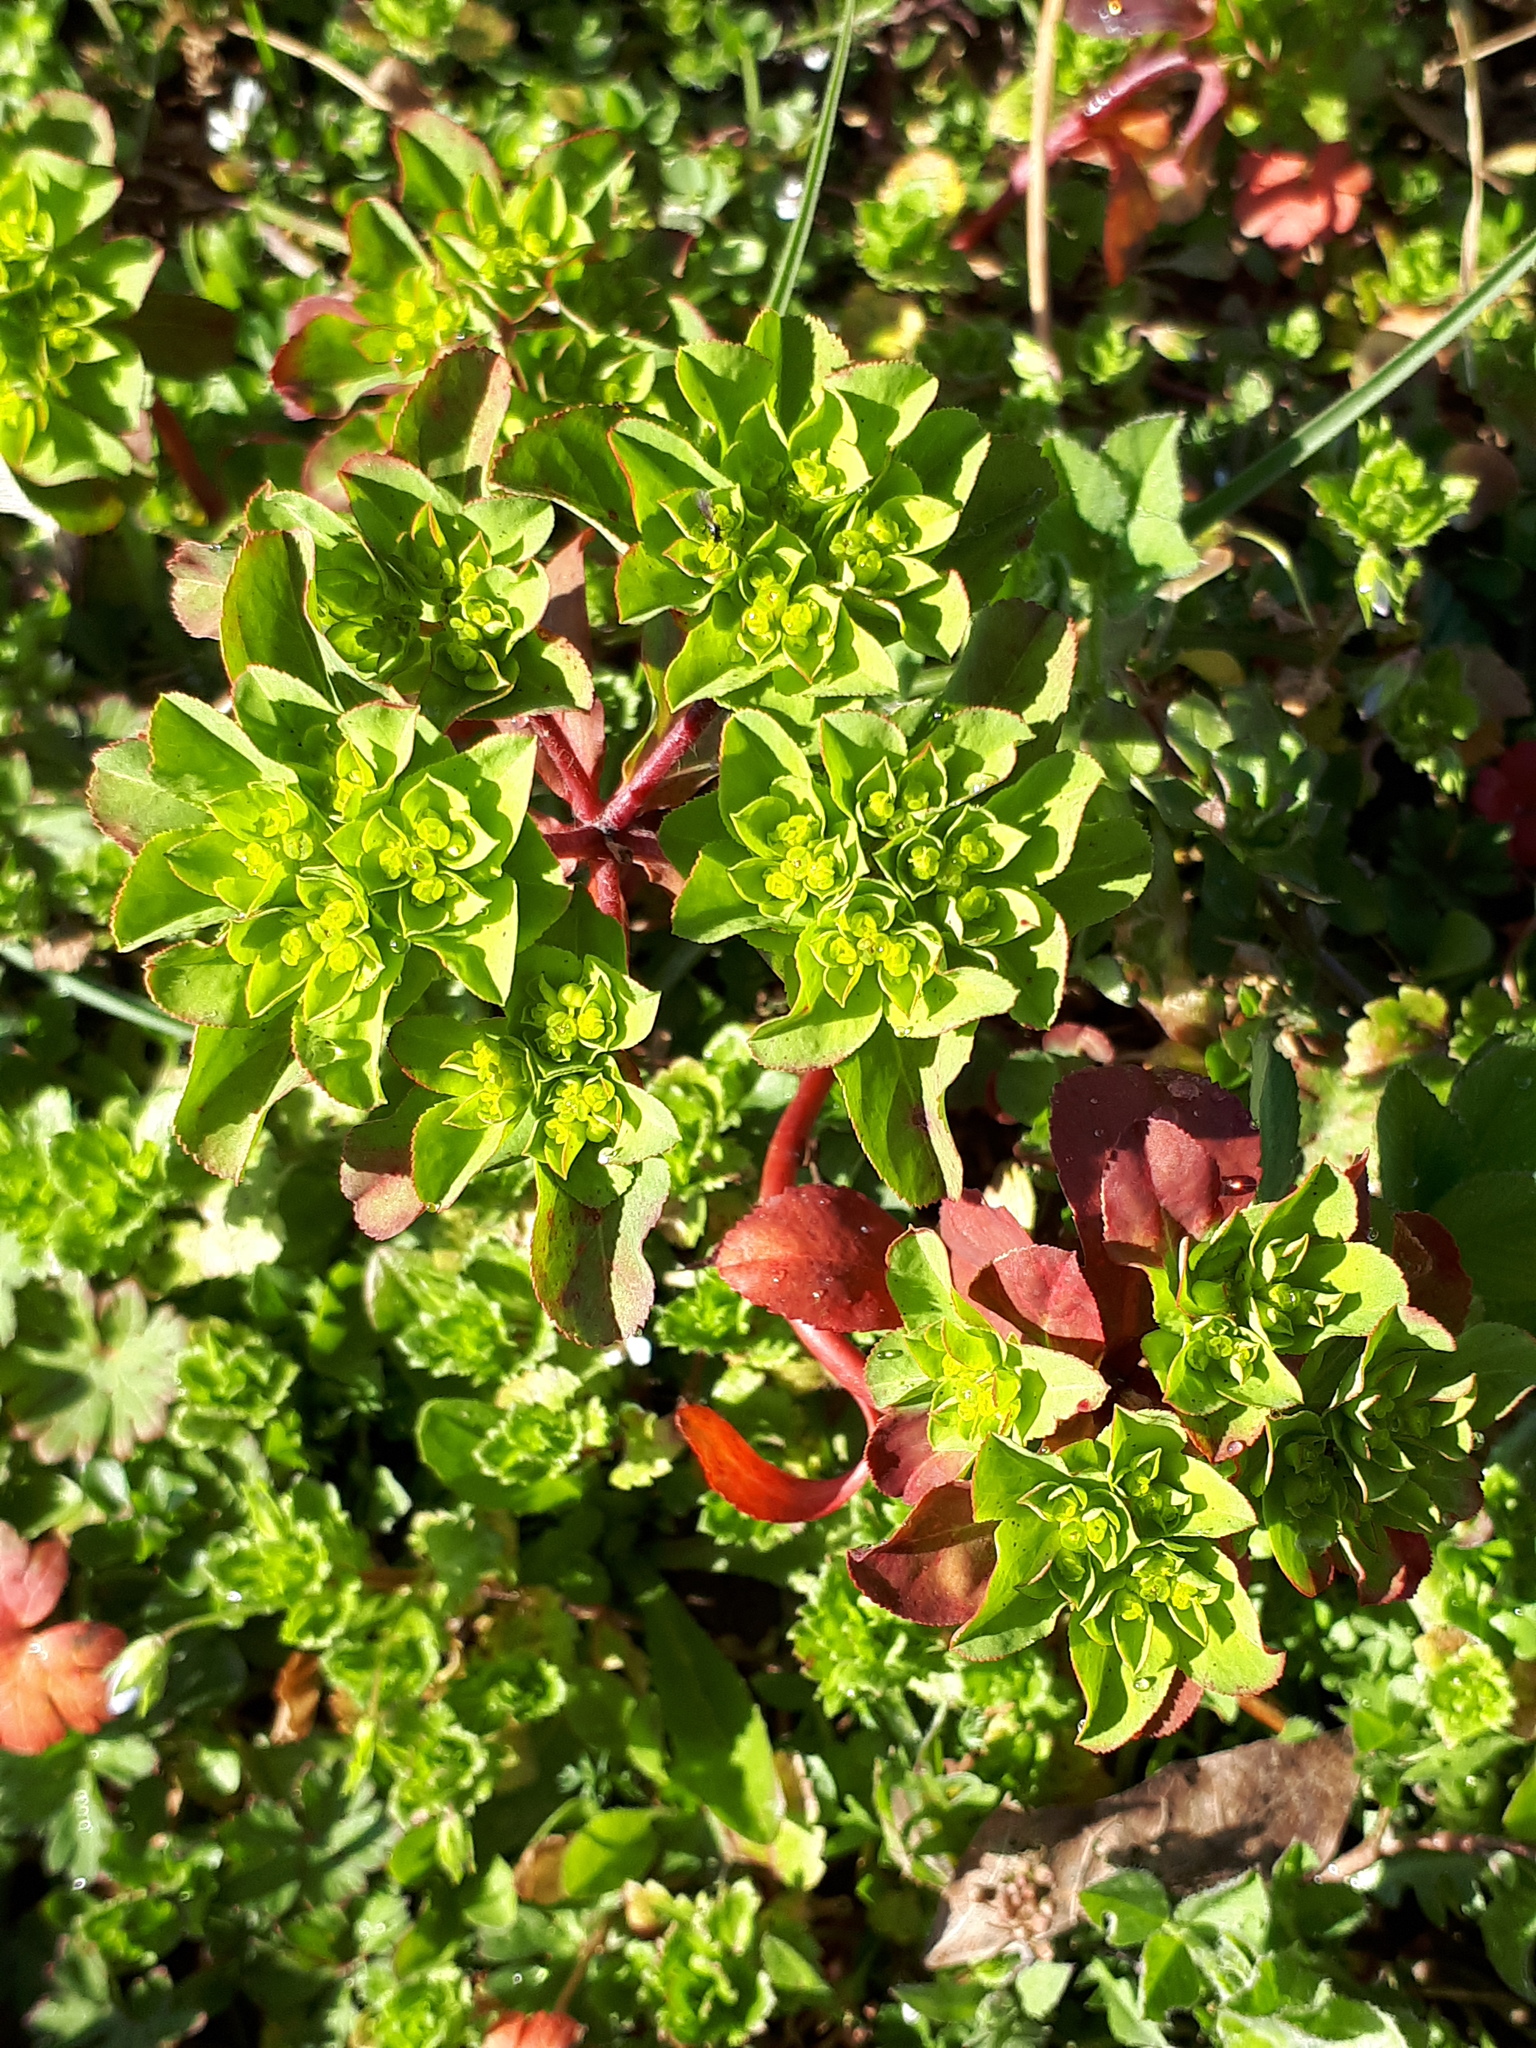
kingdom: Plantae
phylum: Tracheophyta
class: Magnoliopsida
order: Malpighiales
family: Euphorbiaceae
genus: Euphorbia
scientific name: Euphorbia helioscopia
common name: Sun spurge
